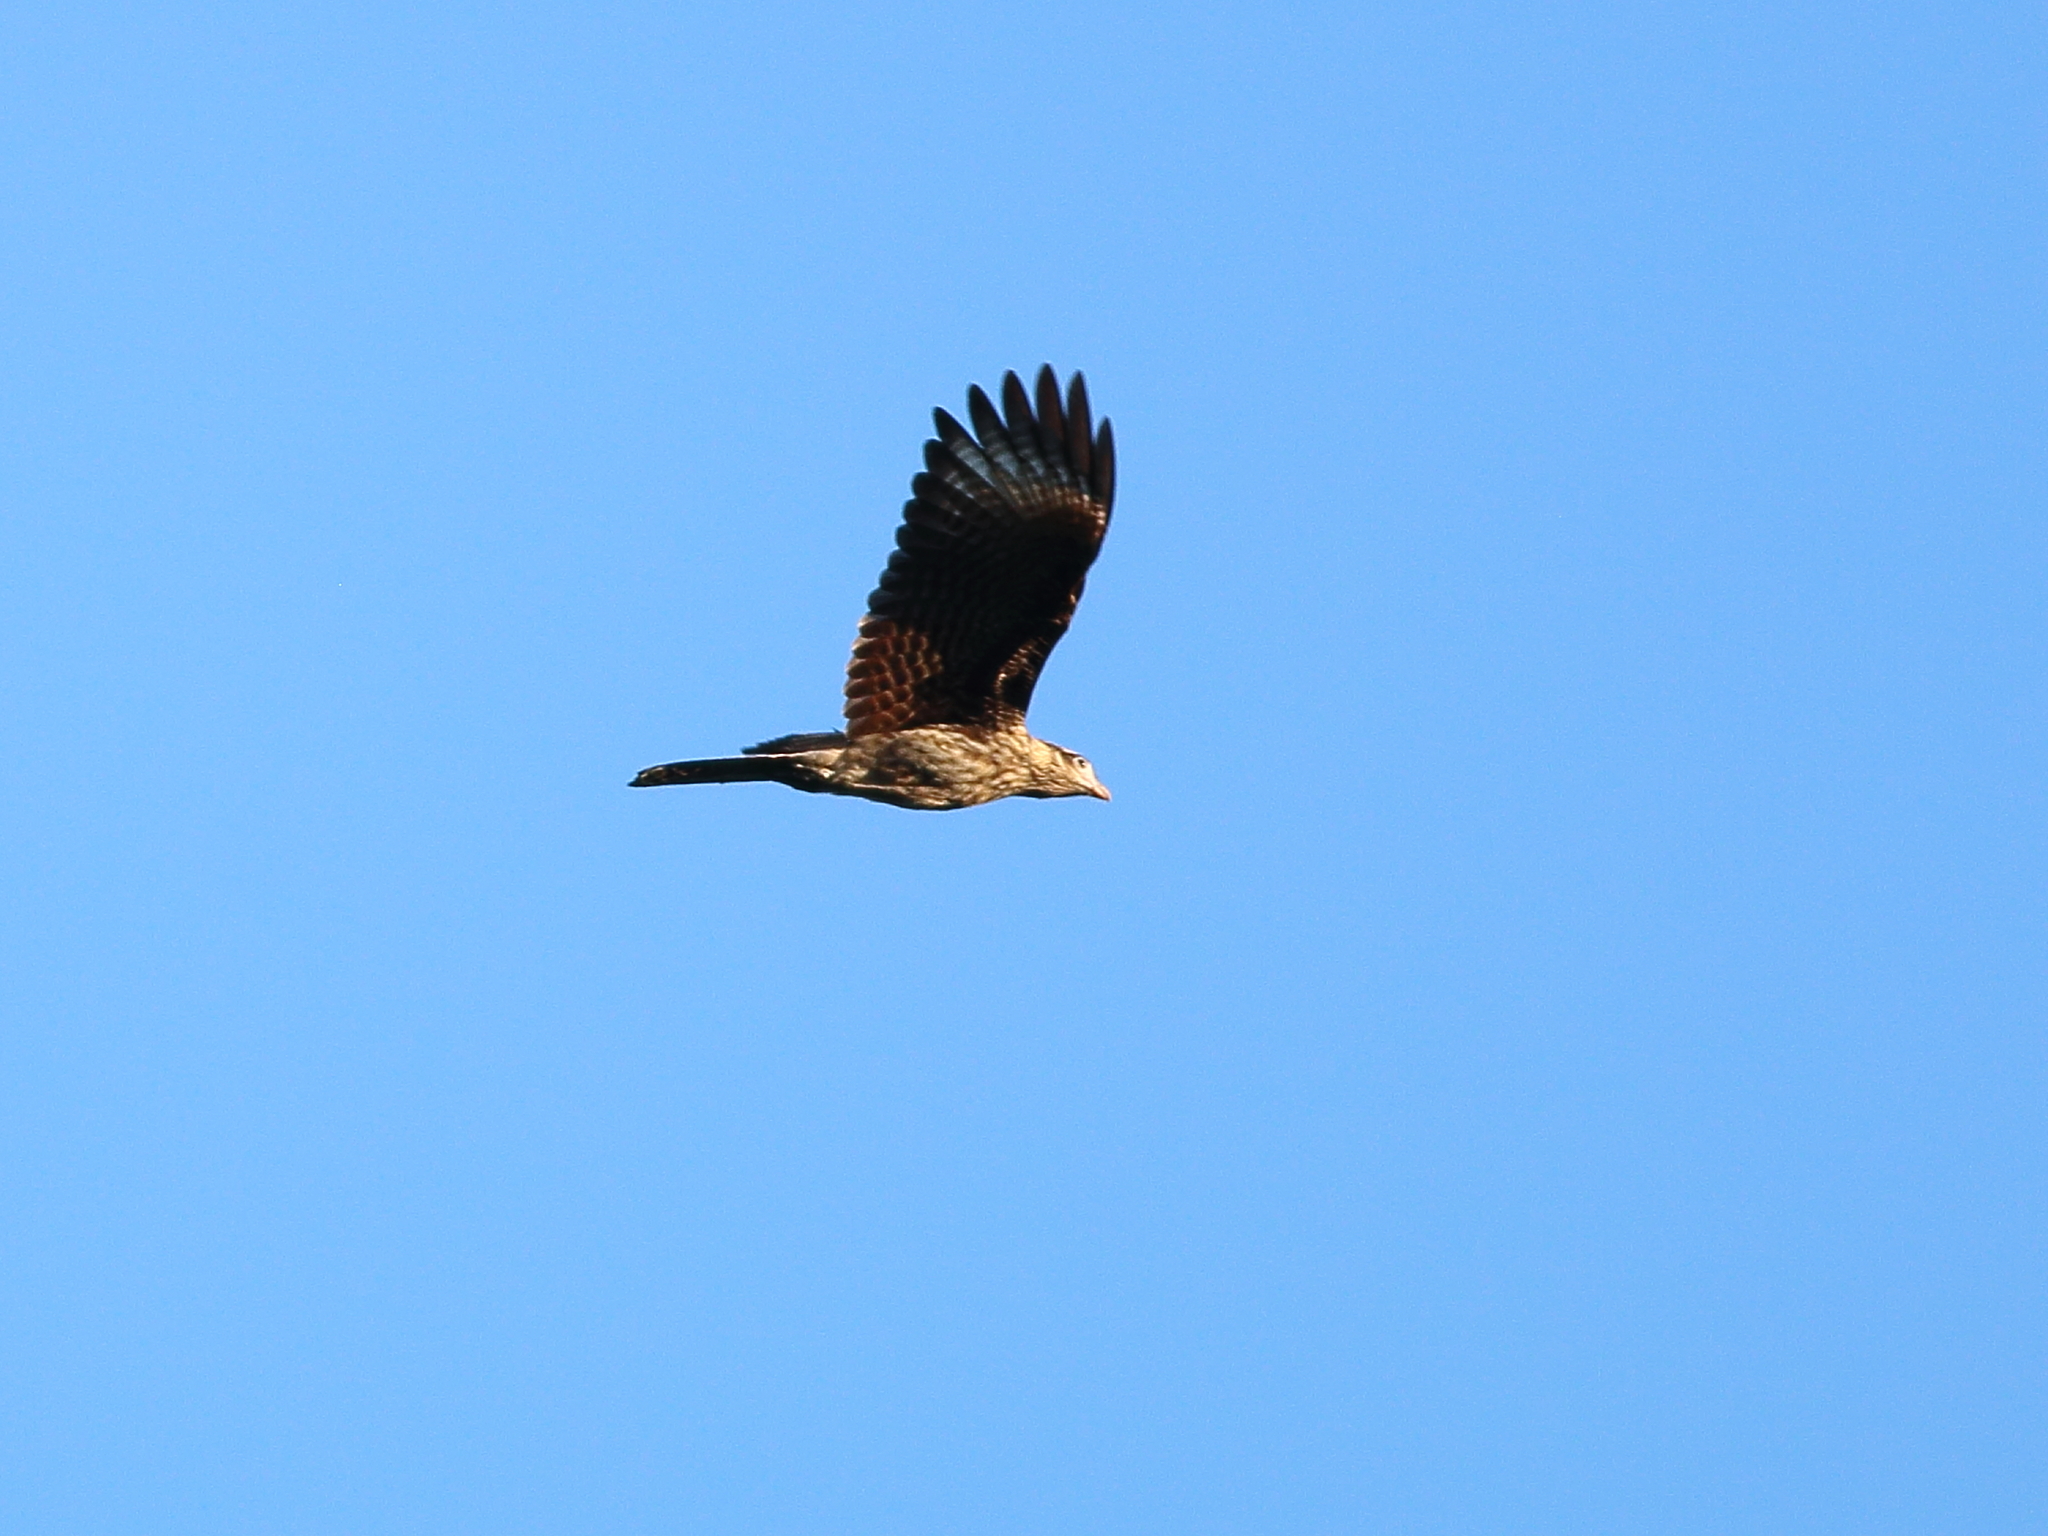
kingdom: Animalia
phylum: Chordata
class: Aves
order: Falconiformes
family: Falconidae
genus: Daptrius
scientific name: Daptrius
